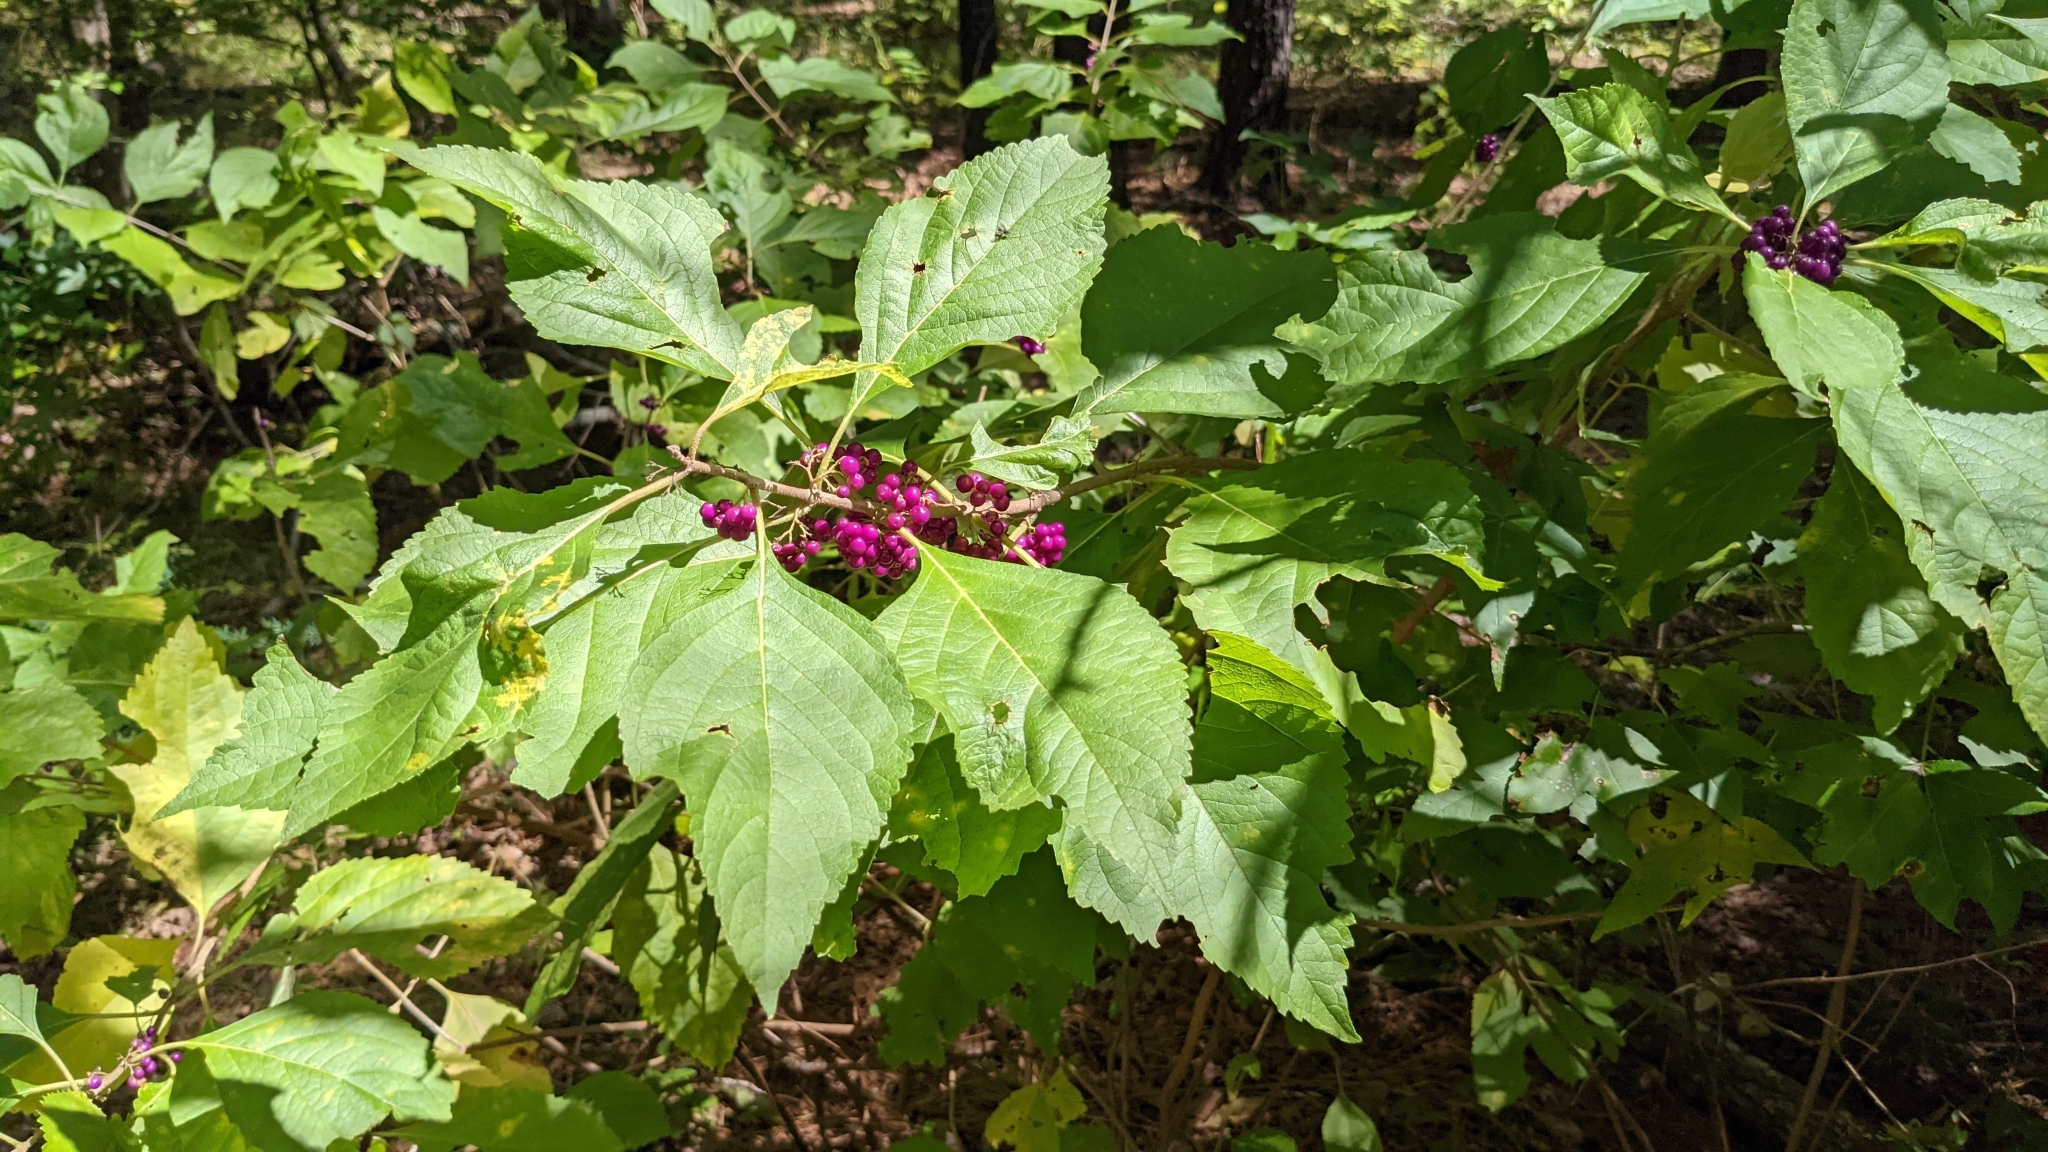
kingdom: Plantae
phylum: Tracheophyta
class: Magnoliopsida
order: Lamiales
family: Lamiaceae
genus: Callicarpa
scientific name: Callicarpa americana
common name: American beautyberry
